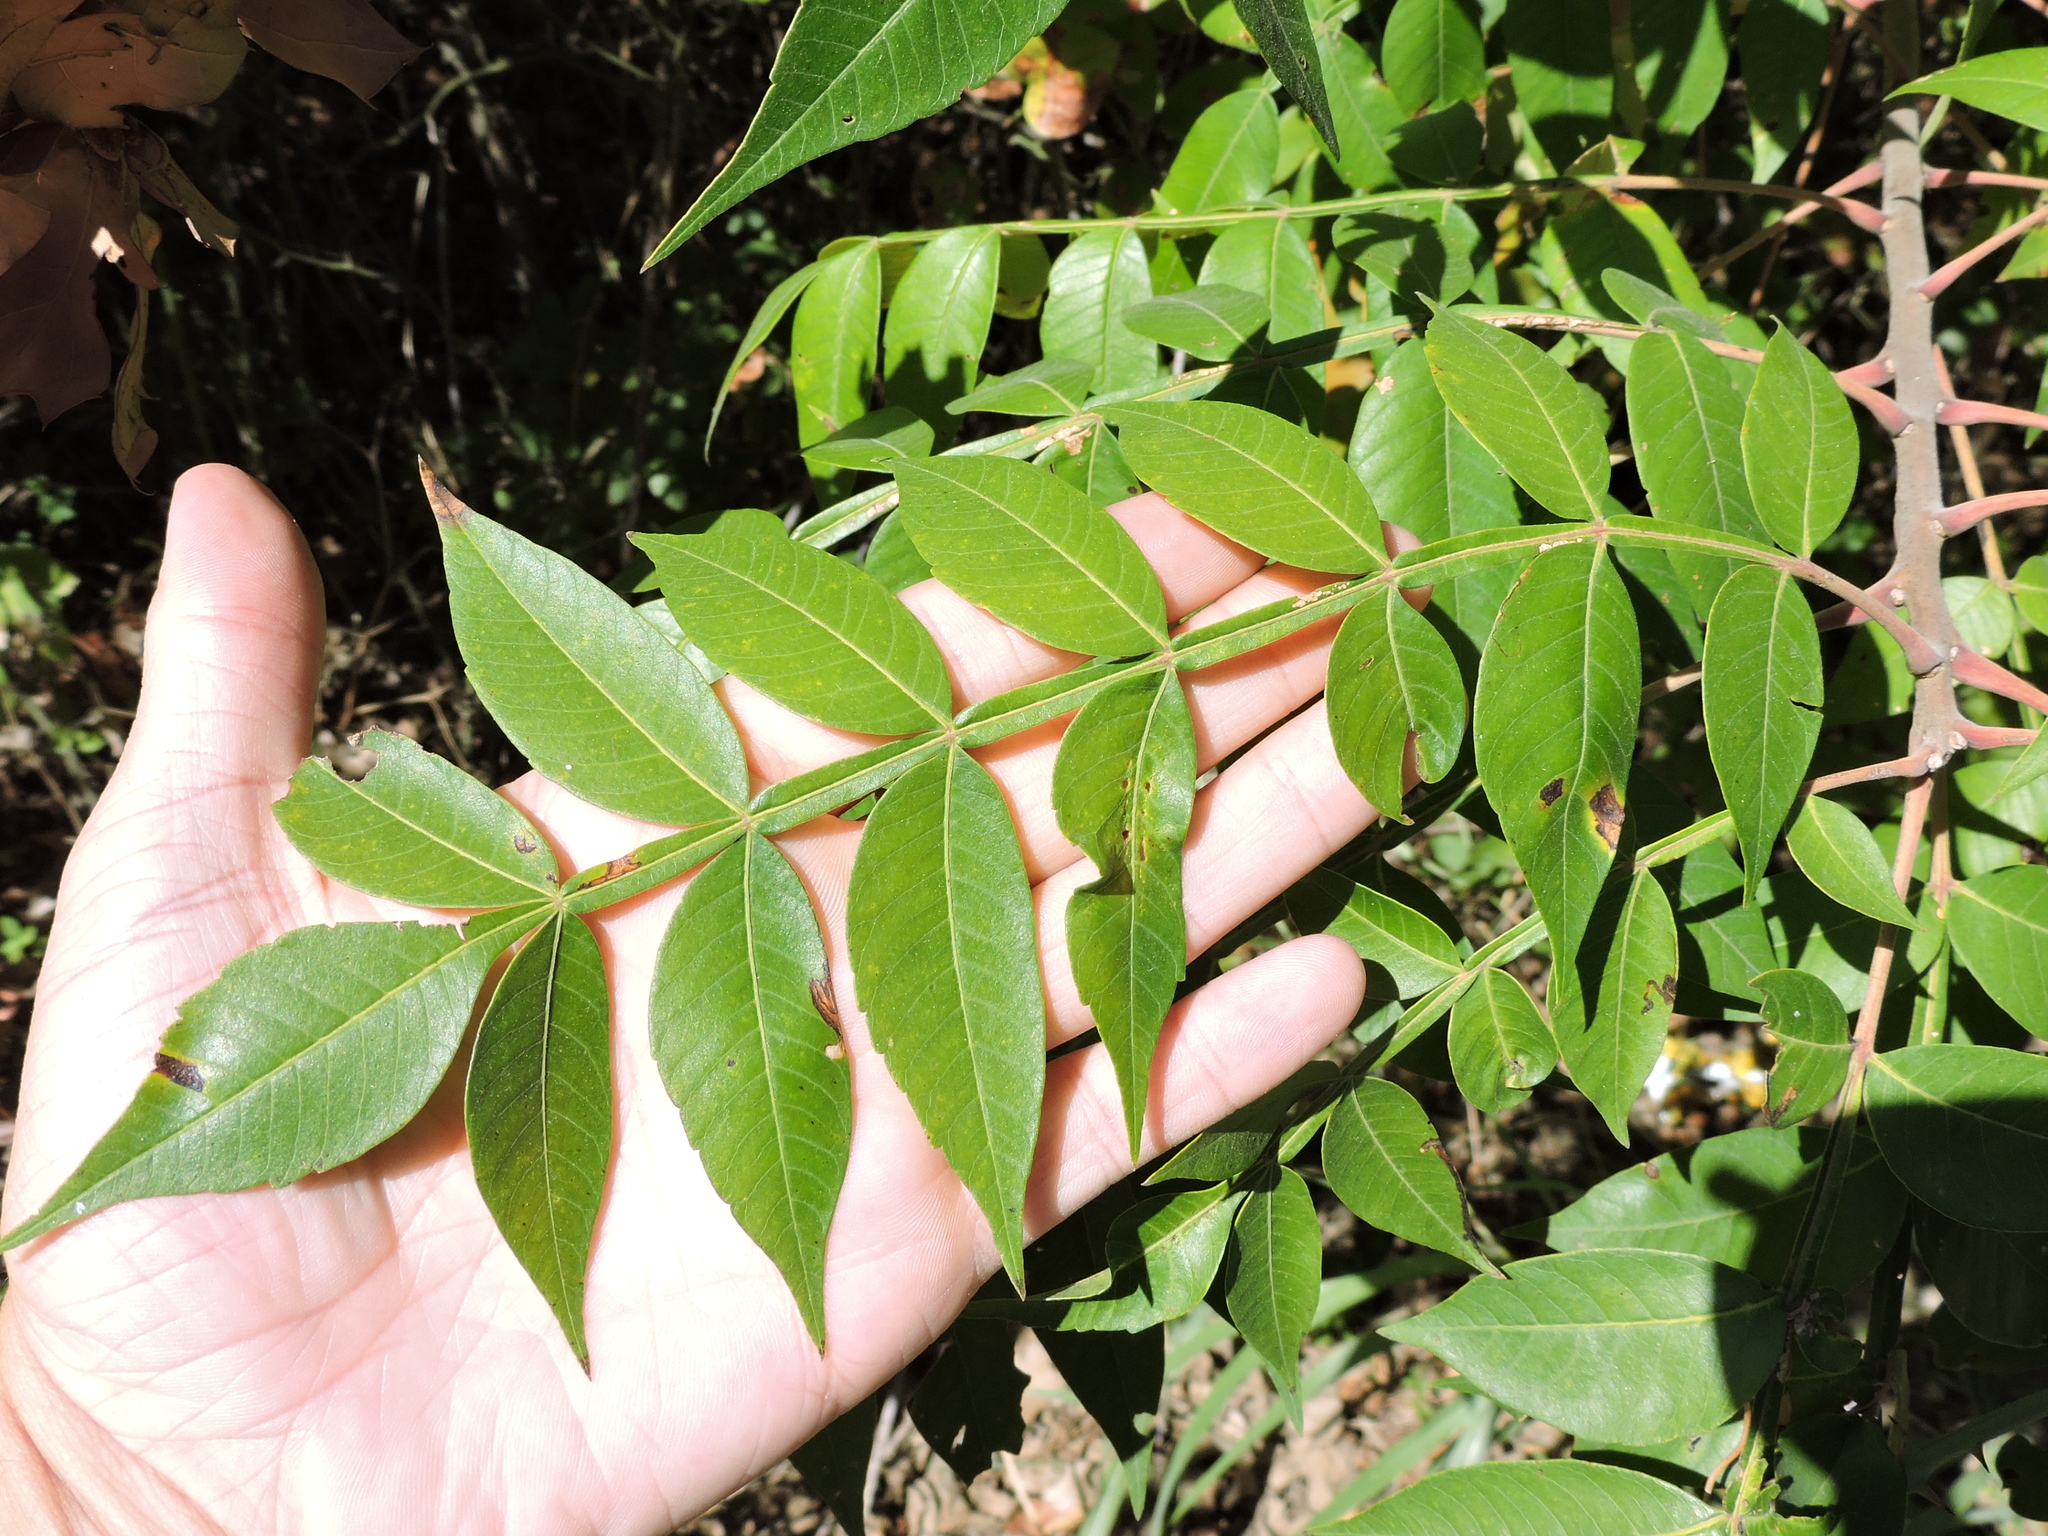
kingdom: Plantae
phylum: Tracheophyta
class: Magnoliopsida
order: Sapindales
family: Anacardiaceae
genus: Rhus
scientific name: Rhus copallina
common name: Shining sumac
